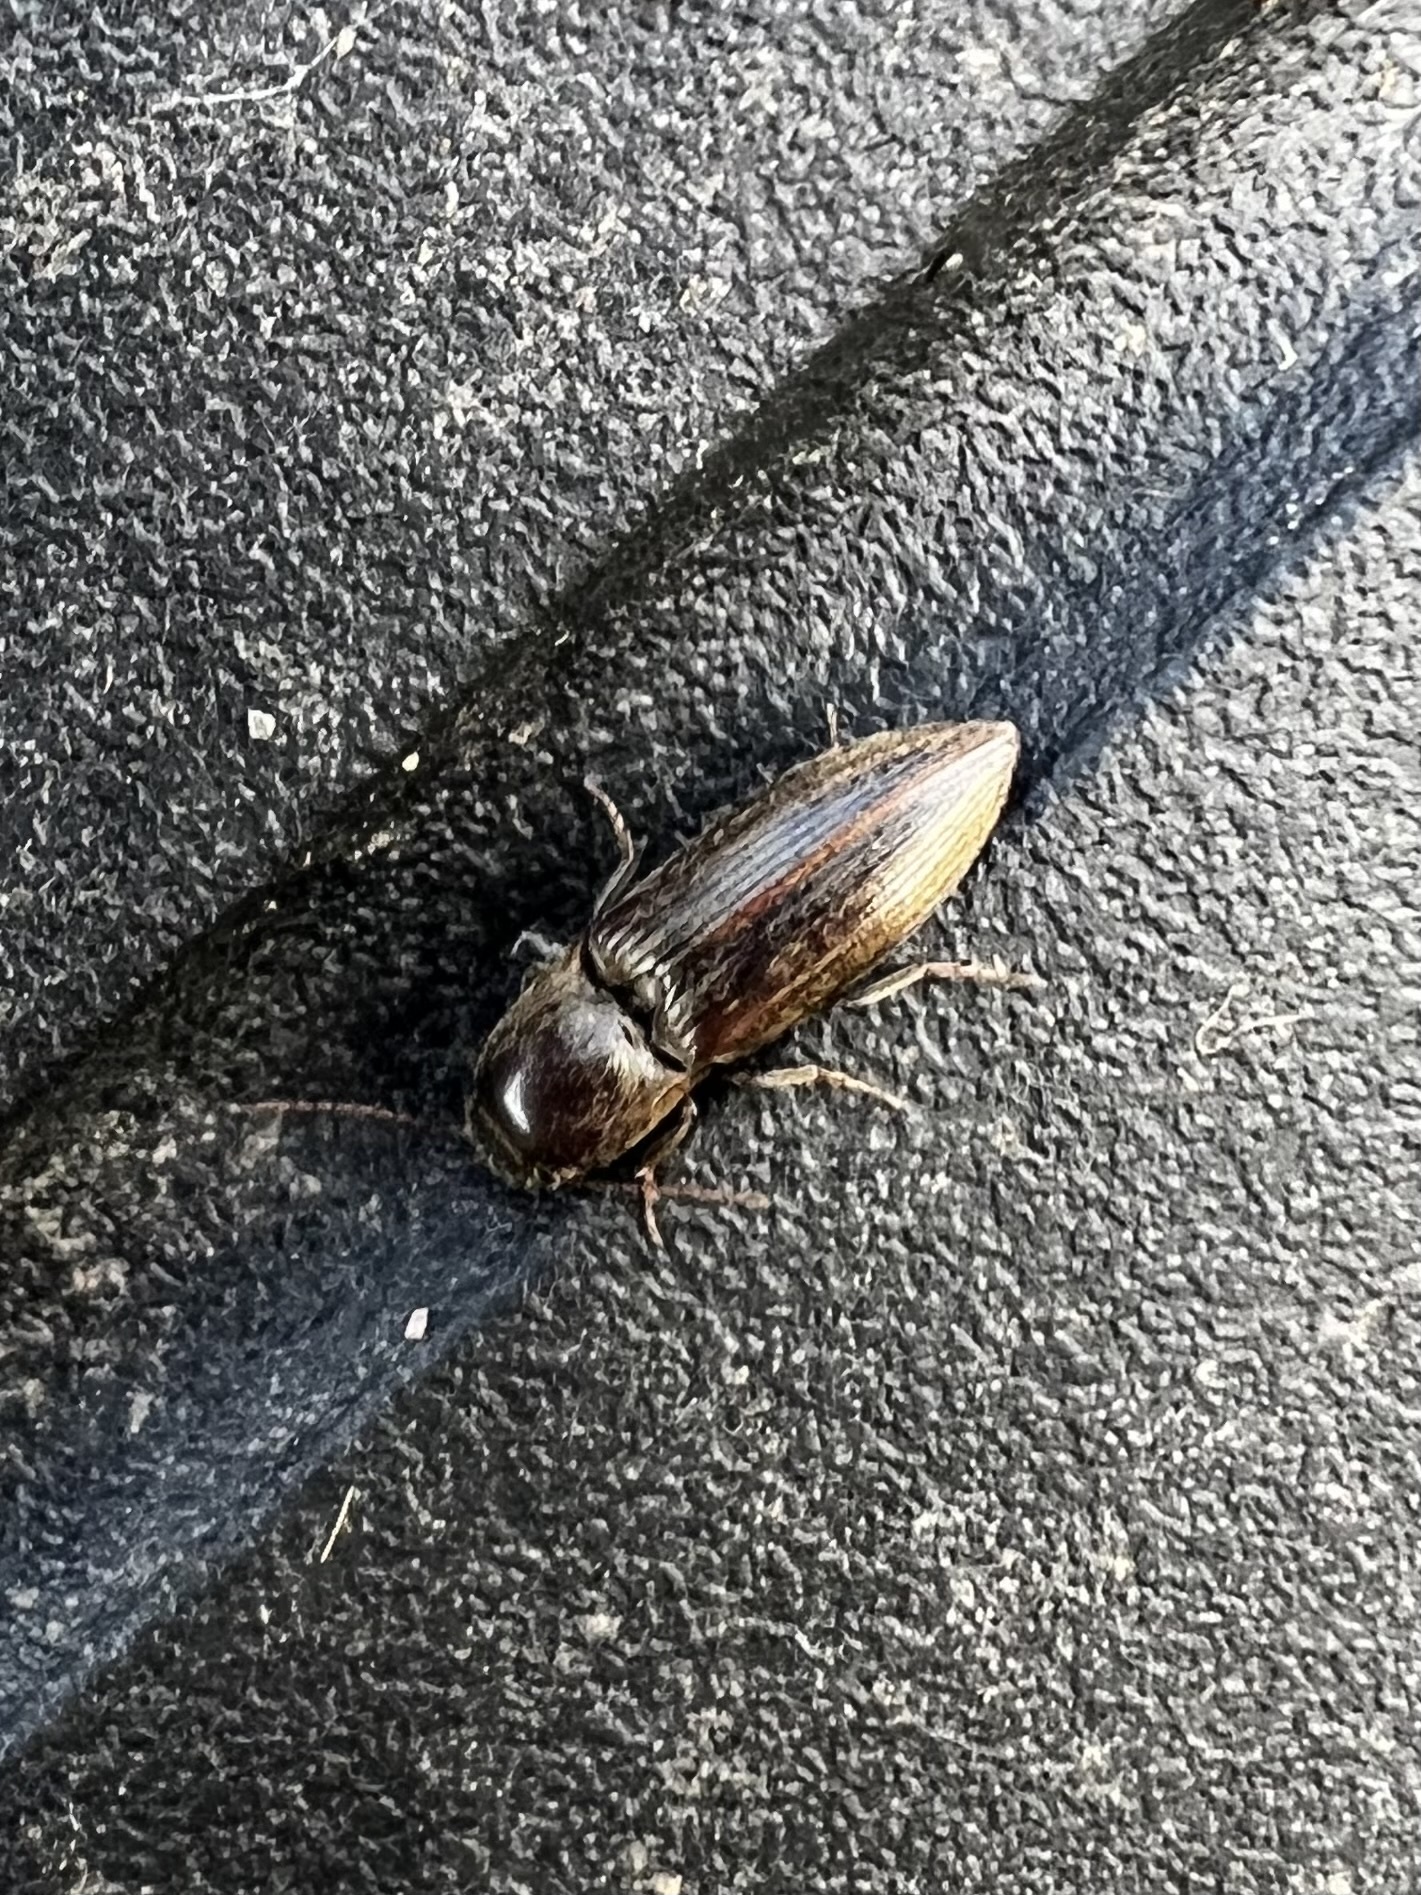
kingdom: Animalia
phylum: Arthropoda
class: Insecta
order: Coleoptera
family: Elateridae
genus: Agriotes
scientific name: Agriotes lineatus
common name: Lined click beetle
